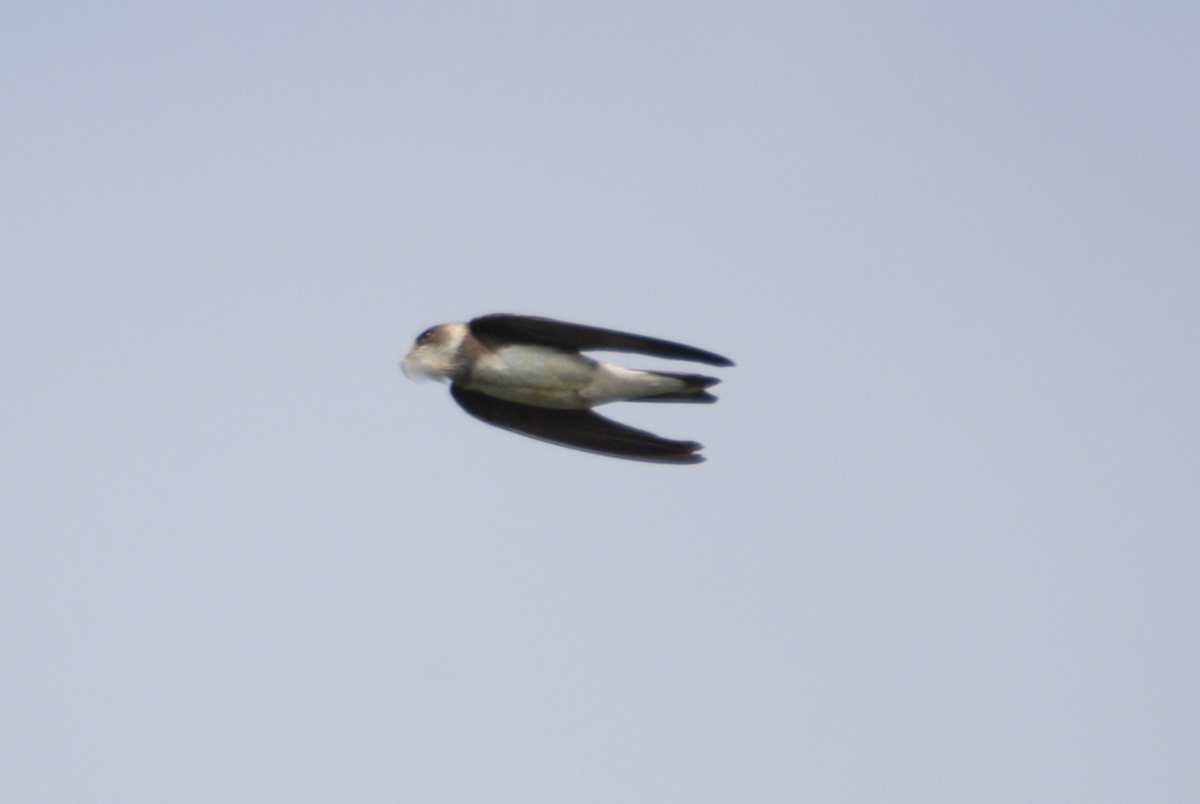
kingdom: Animalia
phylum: Chordata
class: Aves
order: Passeriformes
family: Hirundinidae
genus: Riparia
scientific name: Riparia riparia
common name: Sand martin
